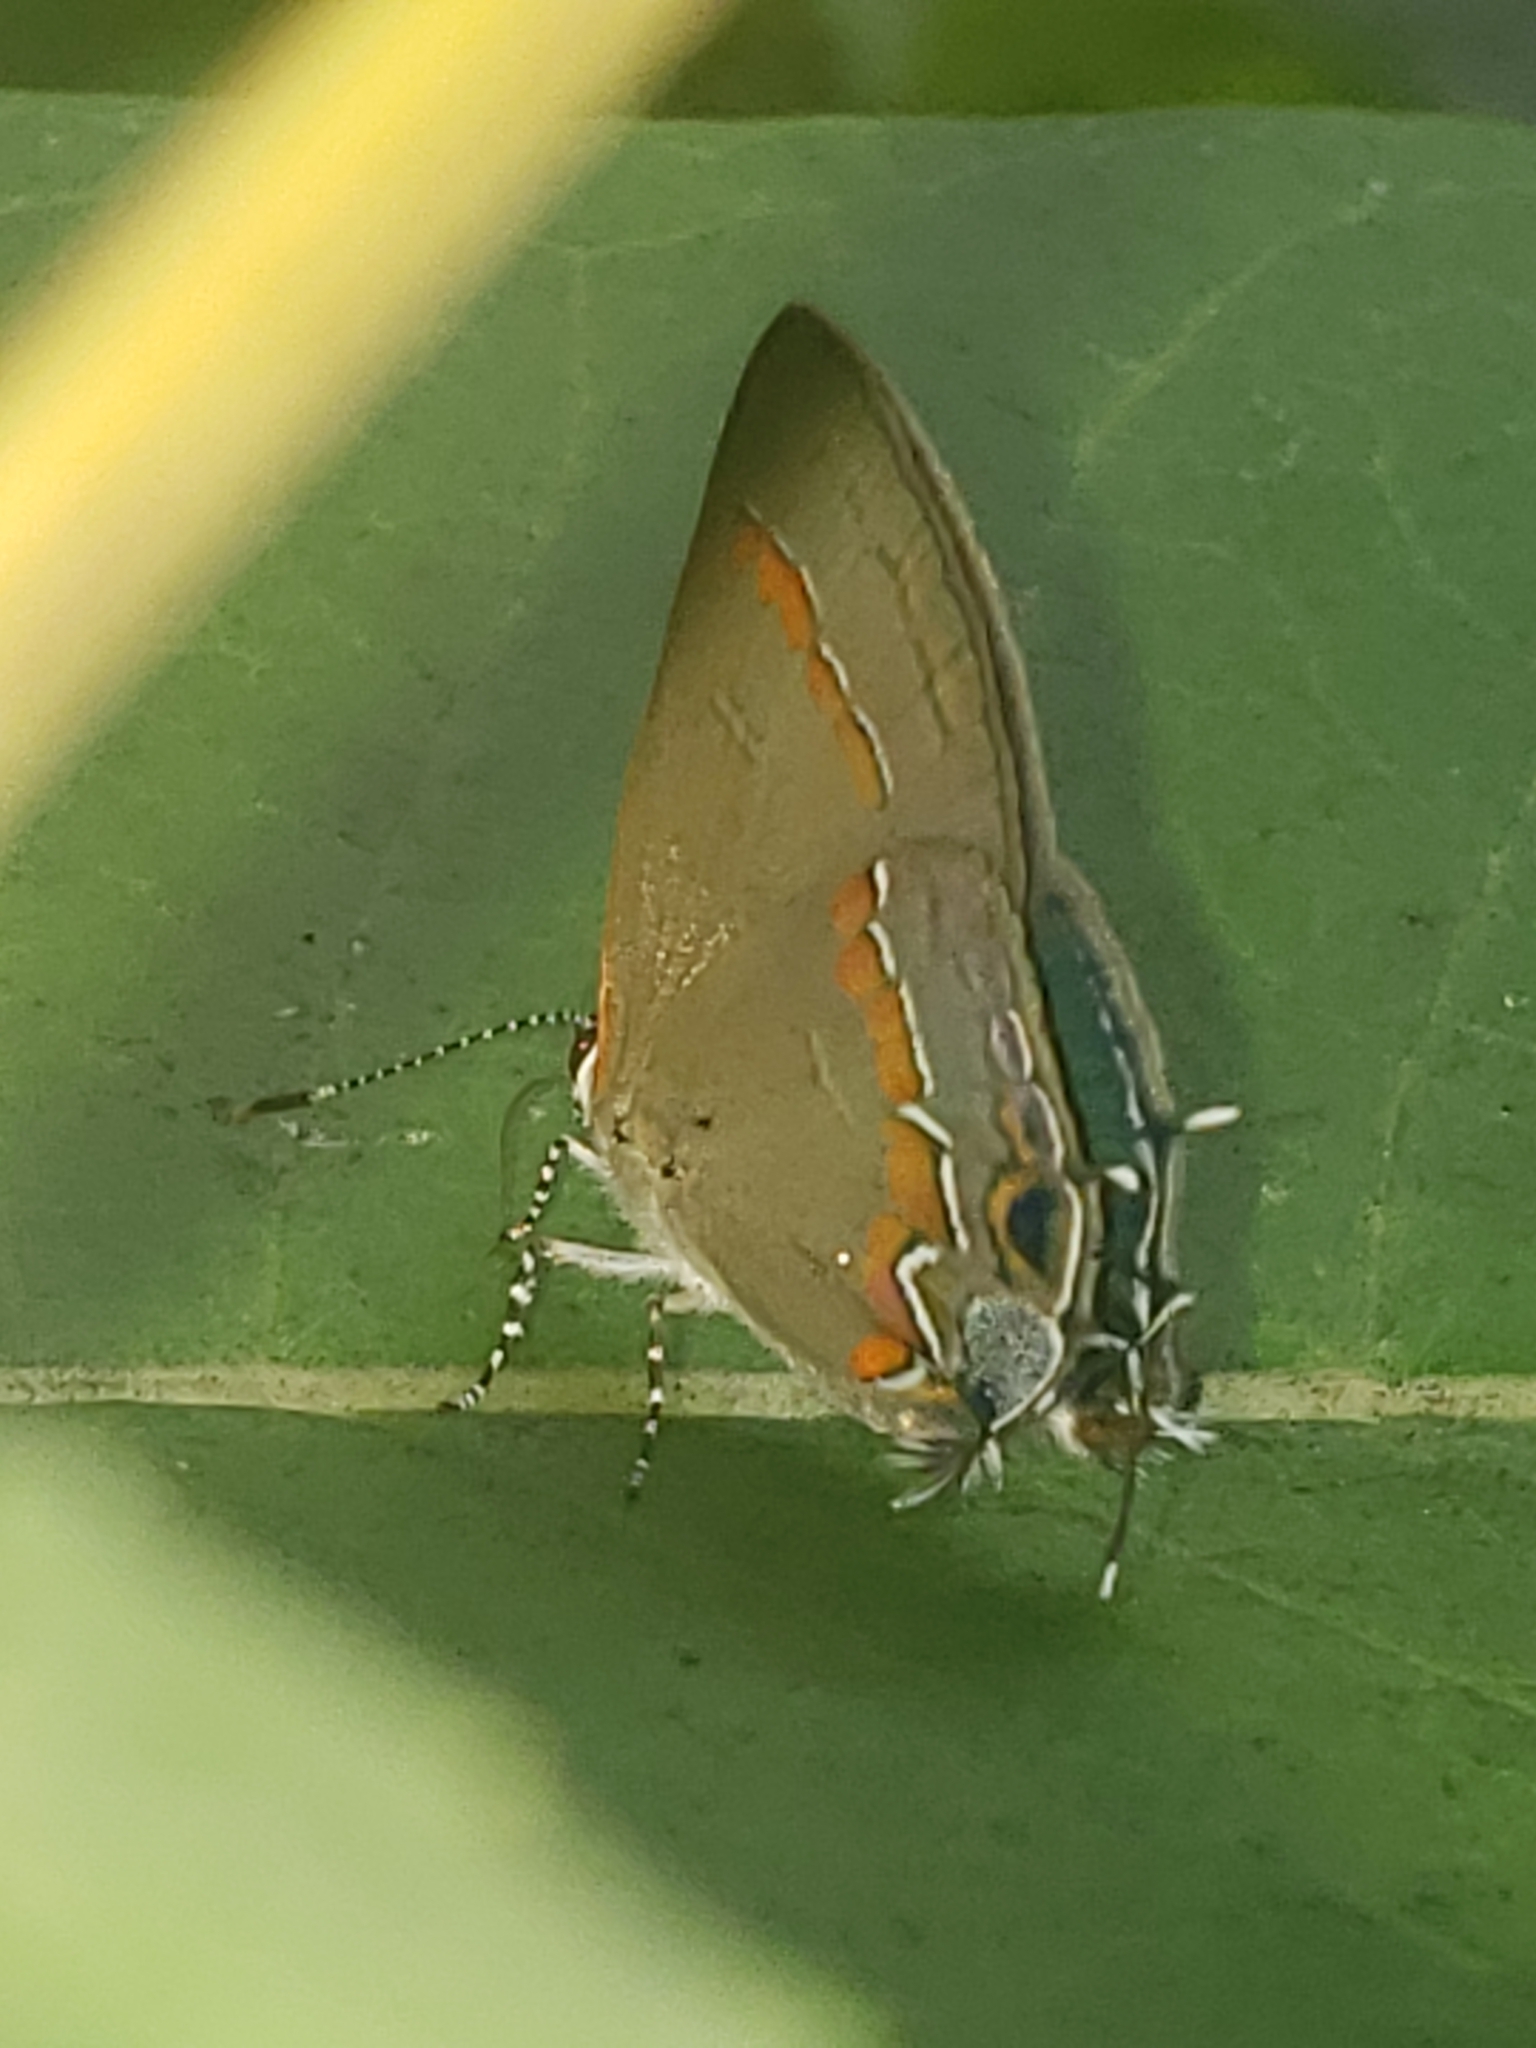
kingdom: Animalia
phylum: Arthropoda
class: Insecta
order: Lepidoptera
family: Lycaenidae
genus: Calycopis
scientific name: Calycopis cecrops
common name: Red-banded hairstreak
